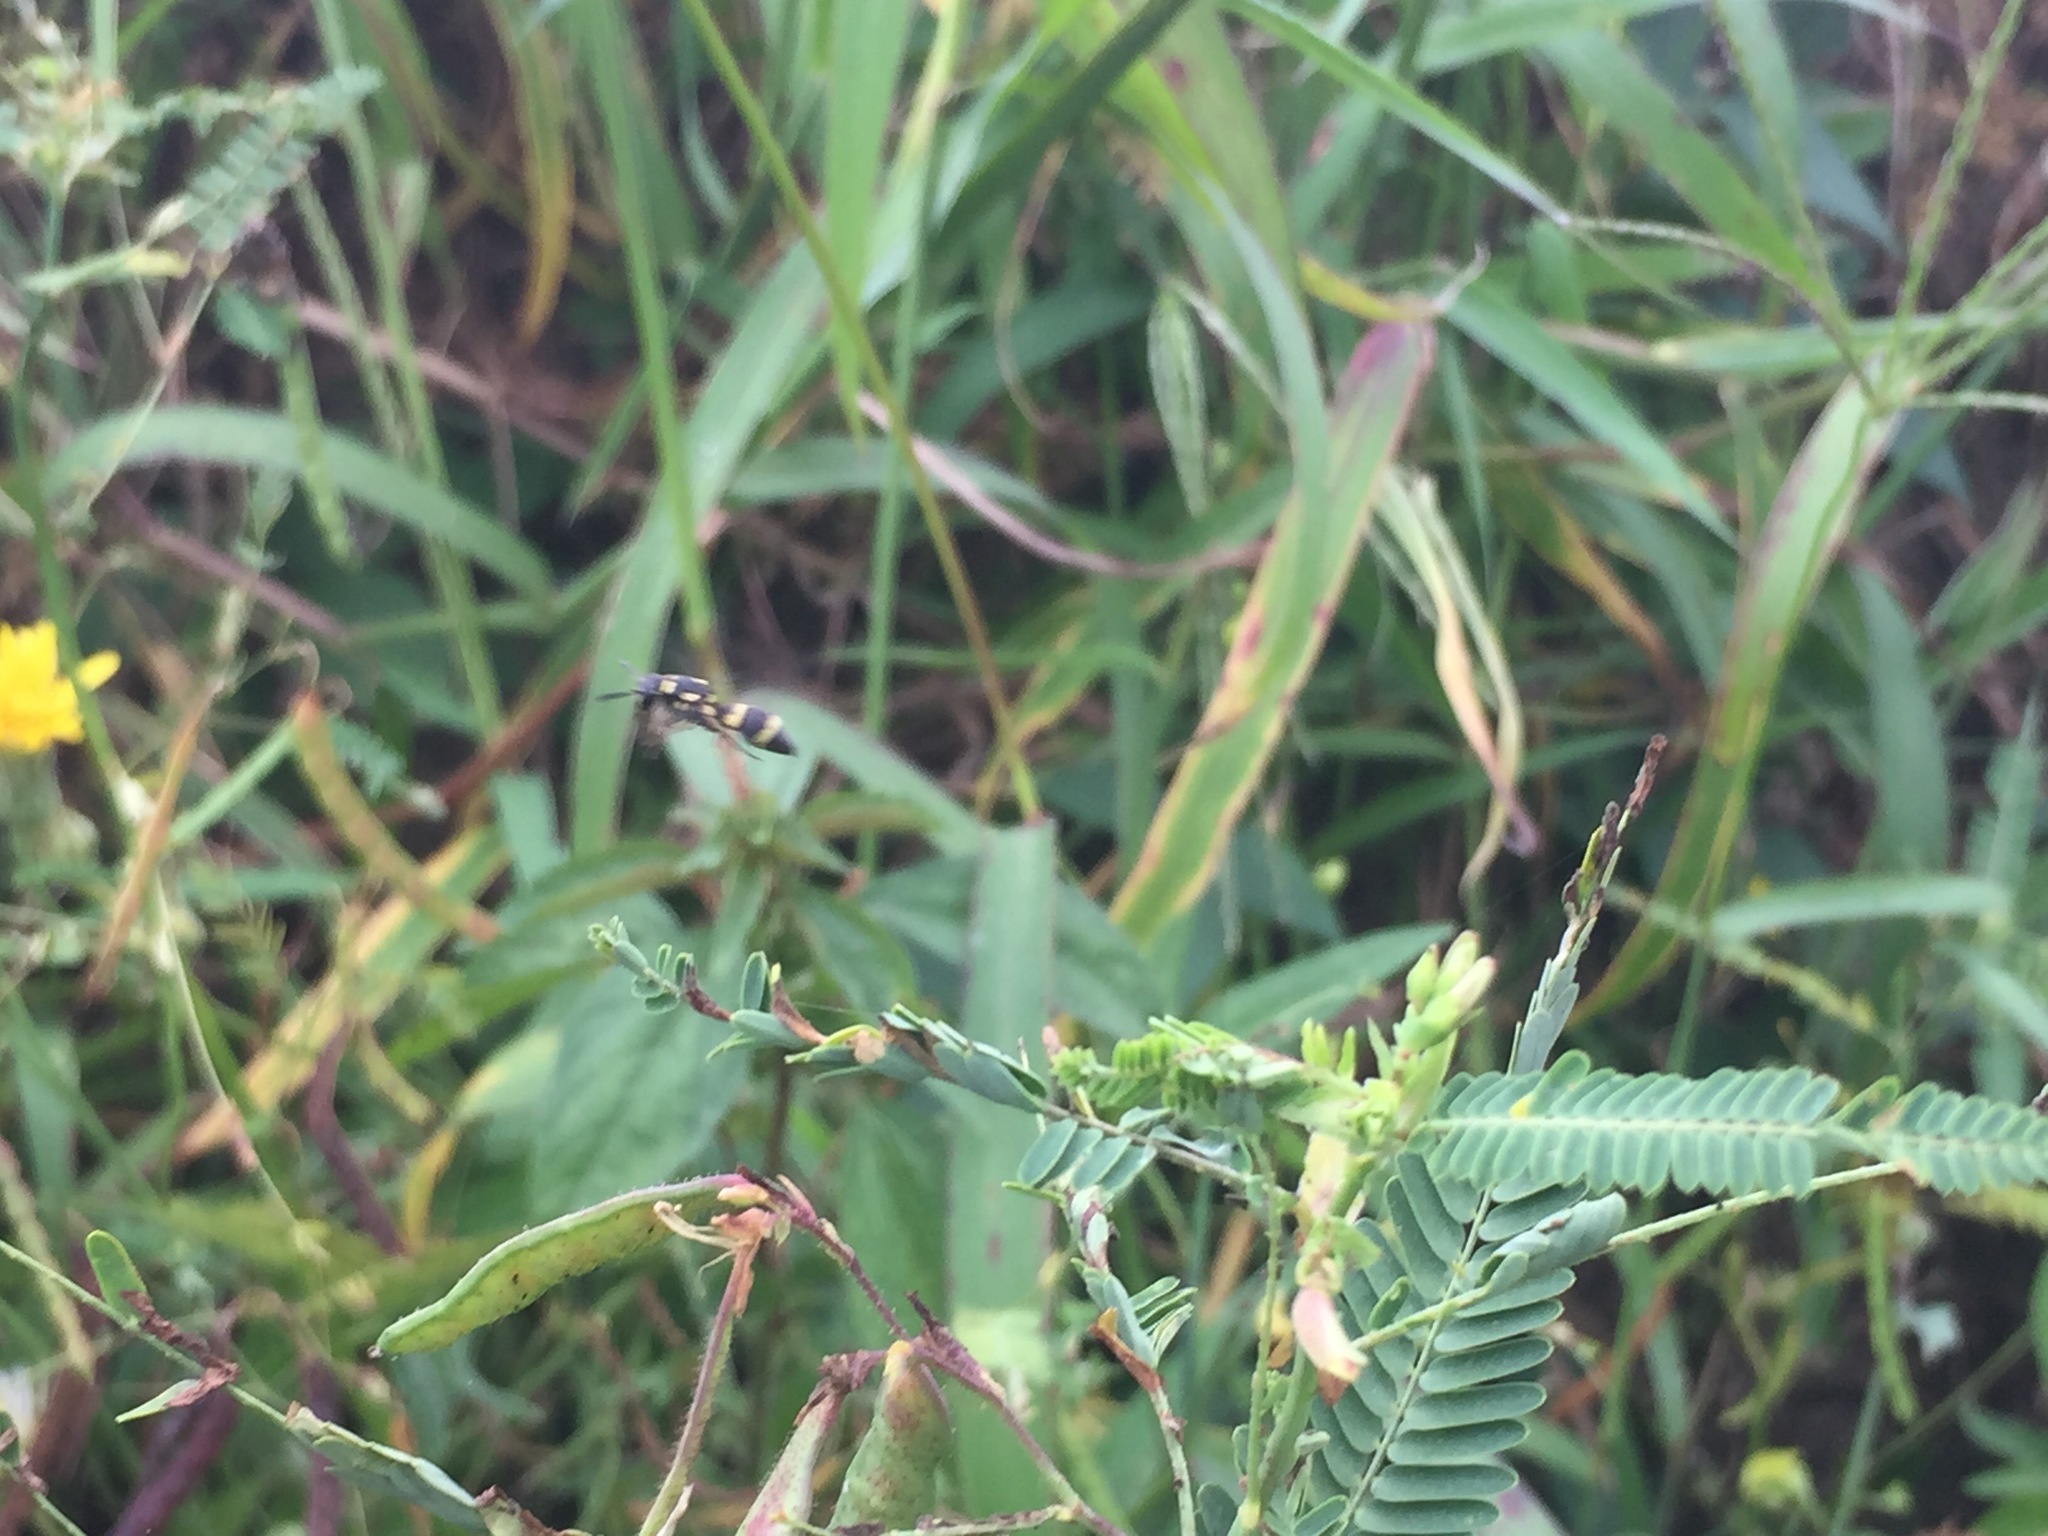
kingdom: Animalia
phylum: Arthropoda
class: Insecta
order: Hymenoptera
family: Eumenidae
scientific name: Eumenidae
